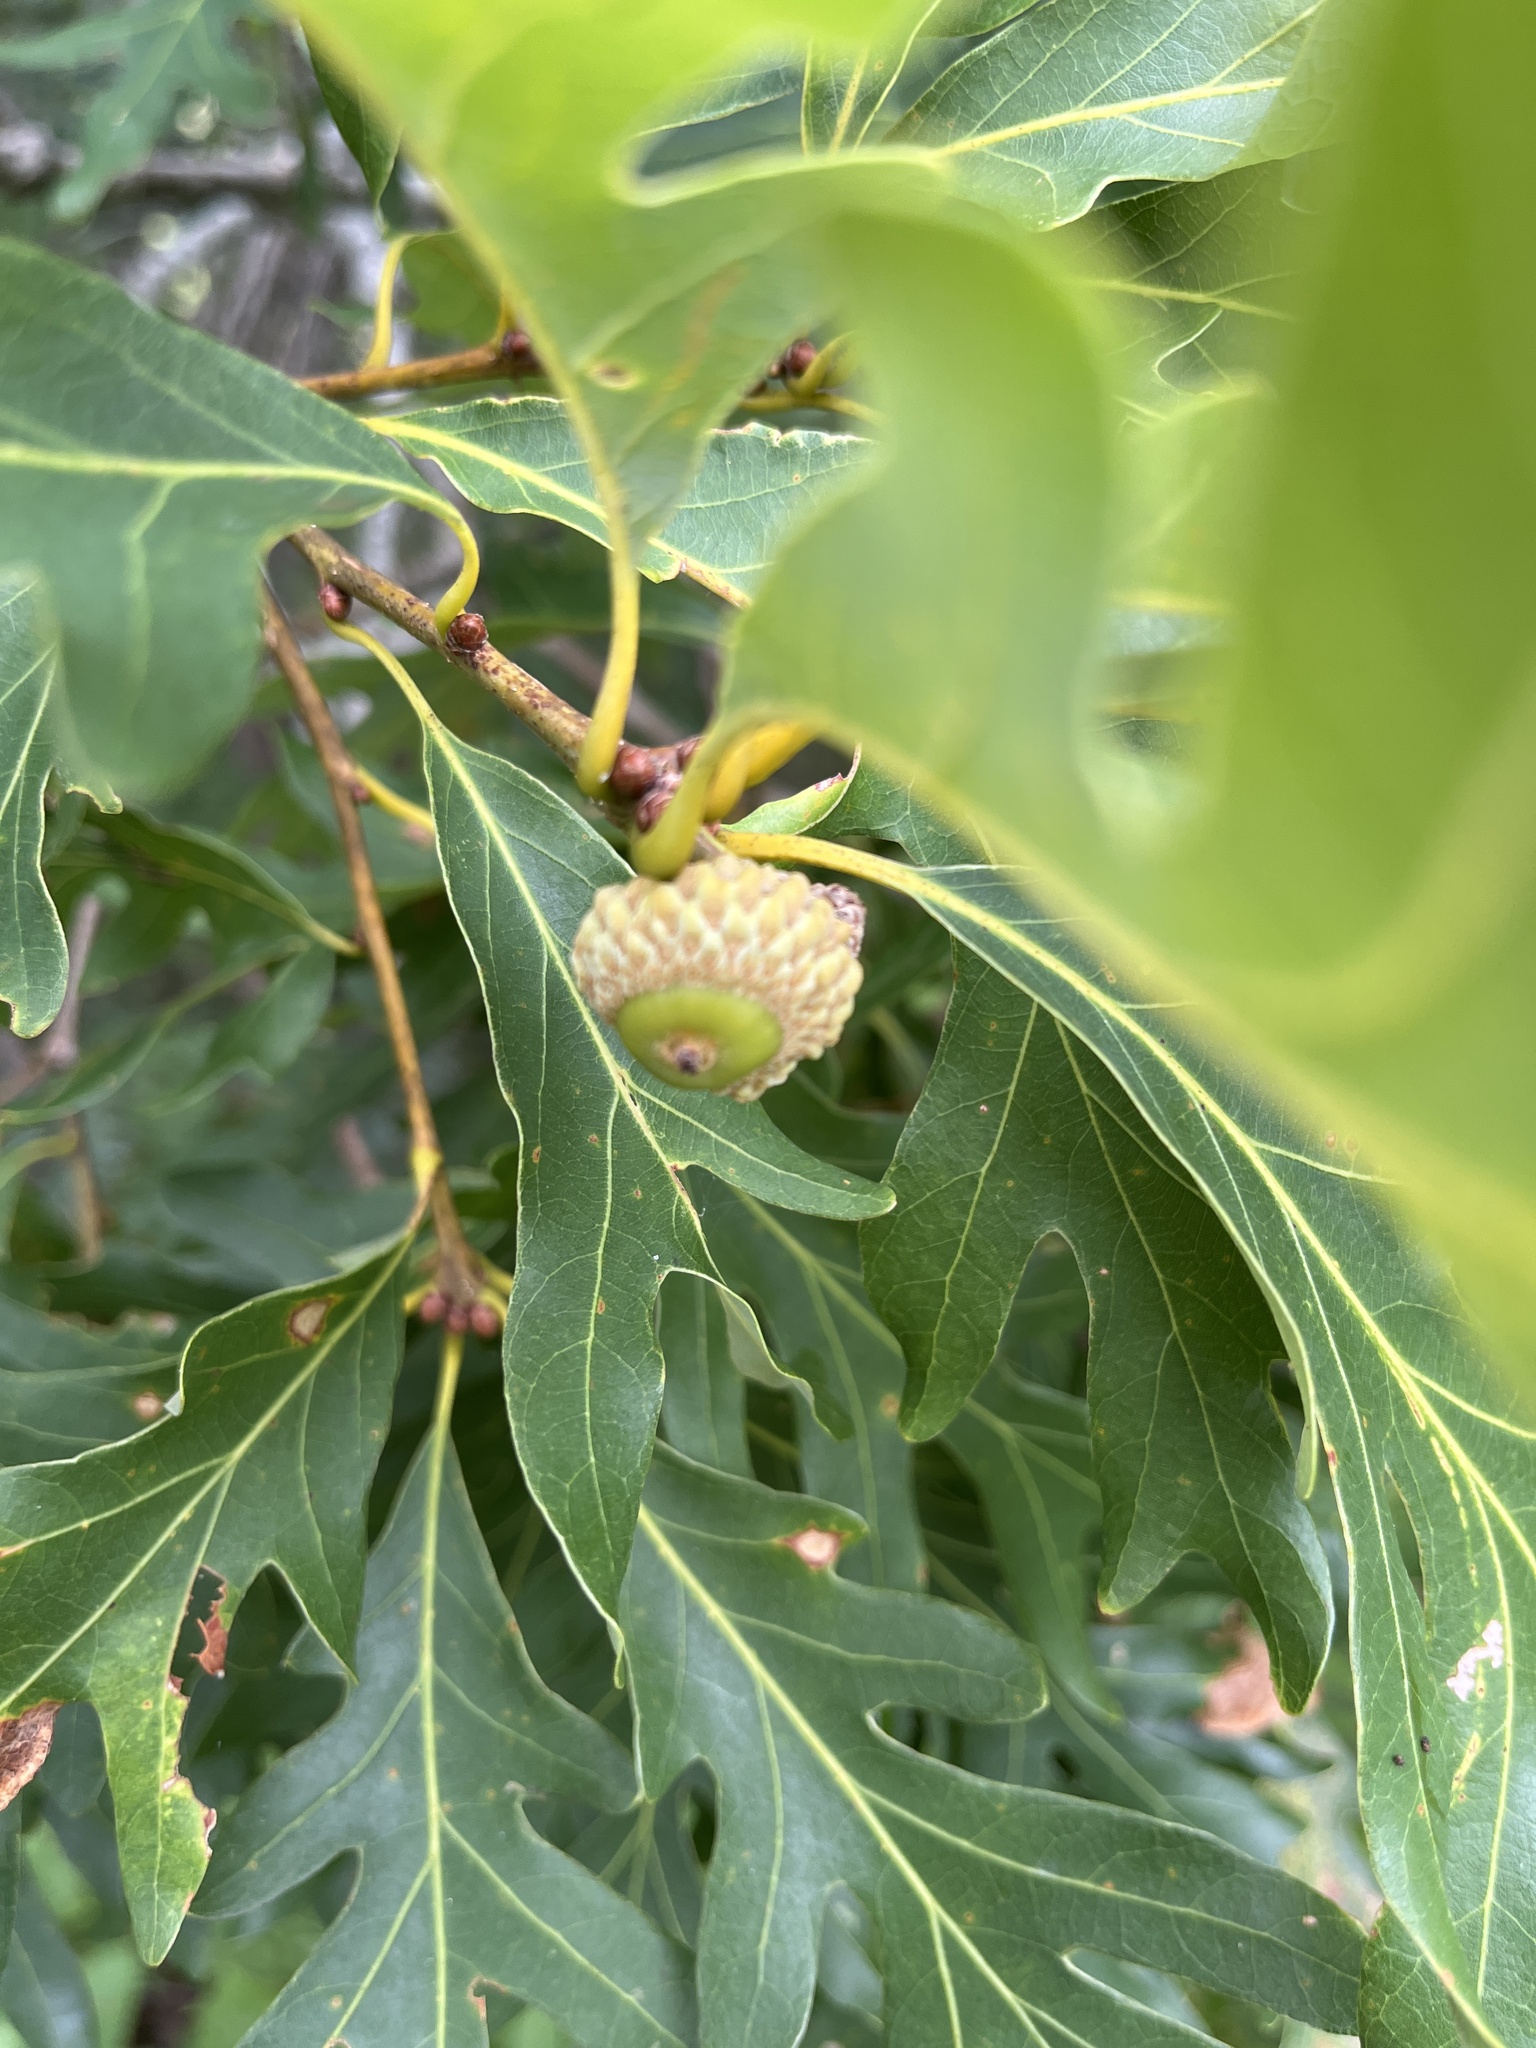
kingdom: Plantae
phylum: Tracheophyta
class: Magnoliopsida
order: Fagales
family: Fagaceae
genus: Quercus
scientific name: Quercus alba
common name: White oak
